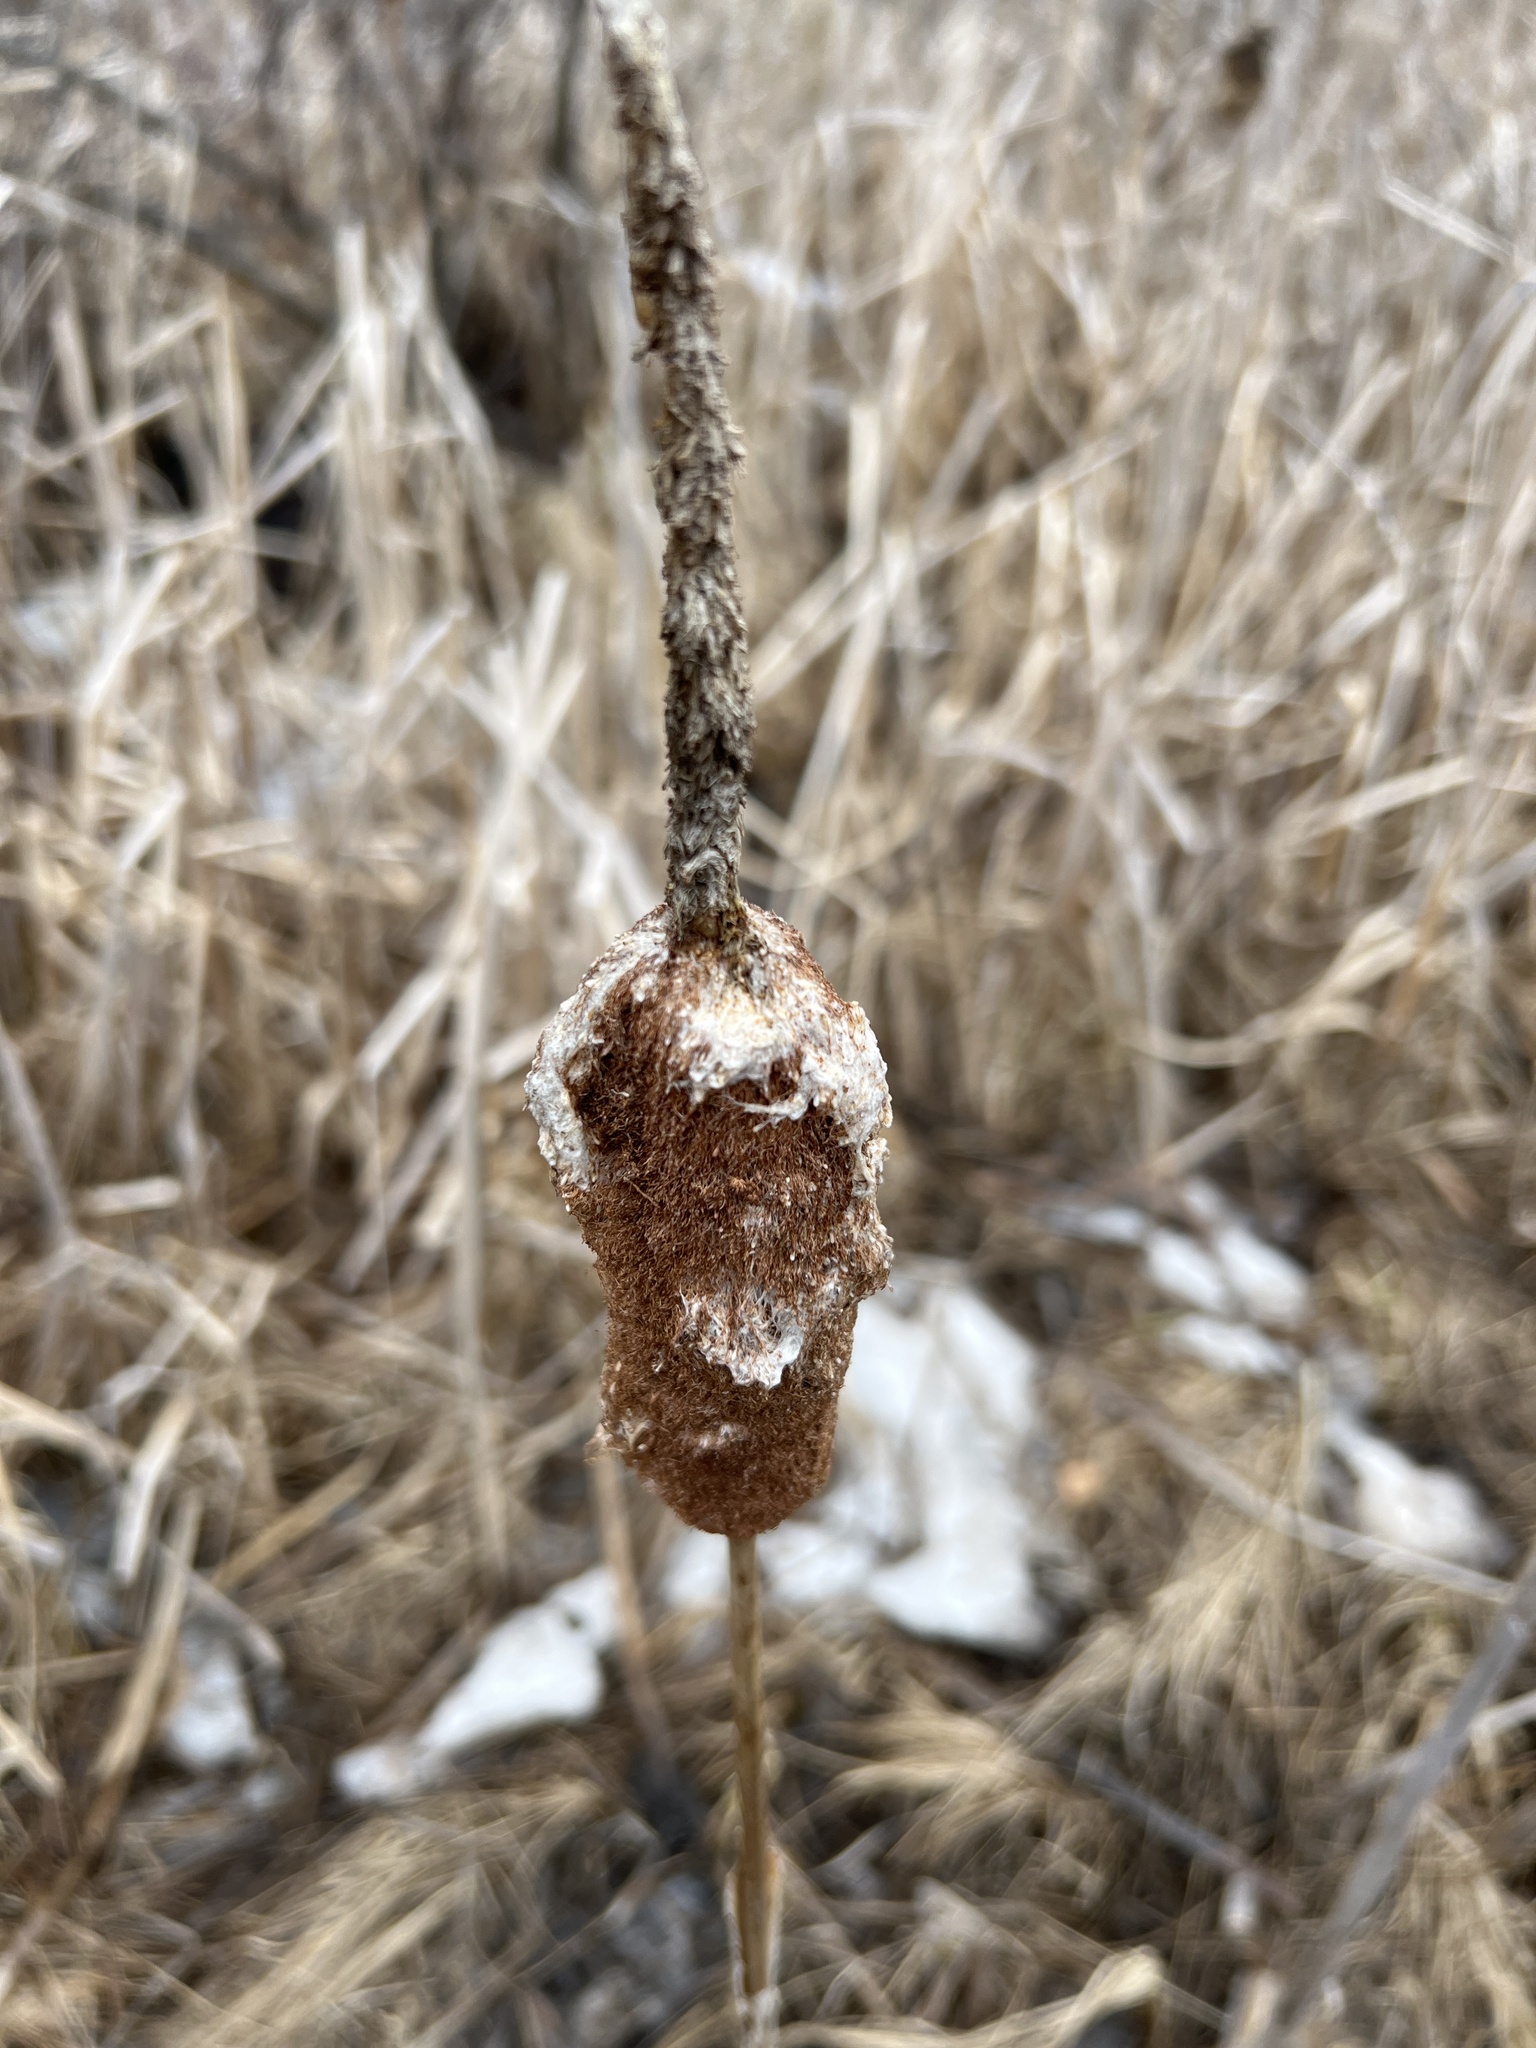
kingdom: Plantae
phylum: Tracheophyta
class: Liliopsida
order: Poales
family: Typhaceae
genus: Typha
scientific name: Typha latifolia
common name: Broadleaf cattail
